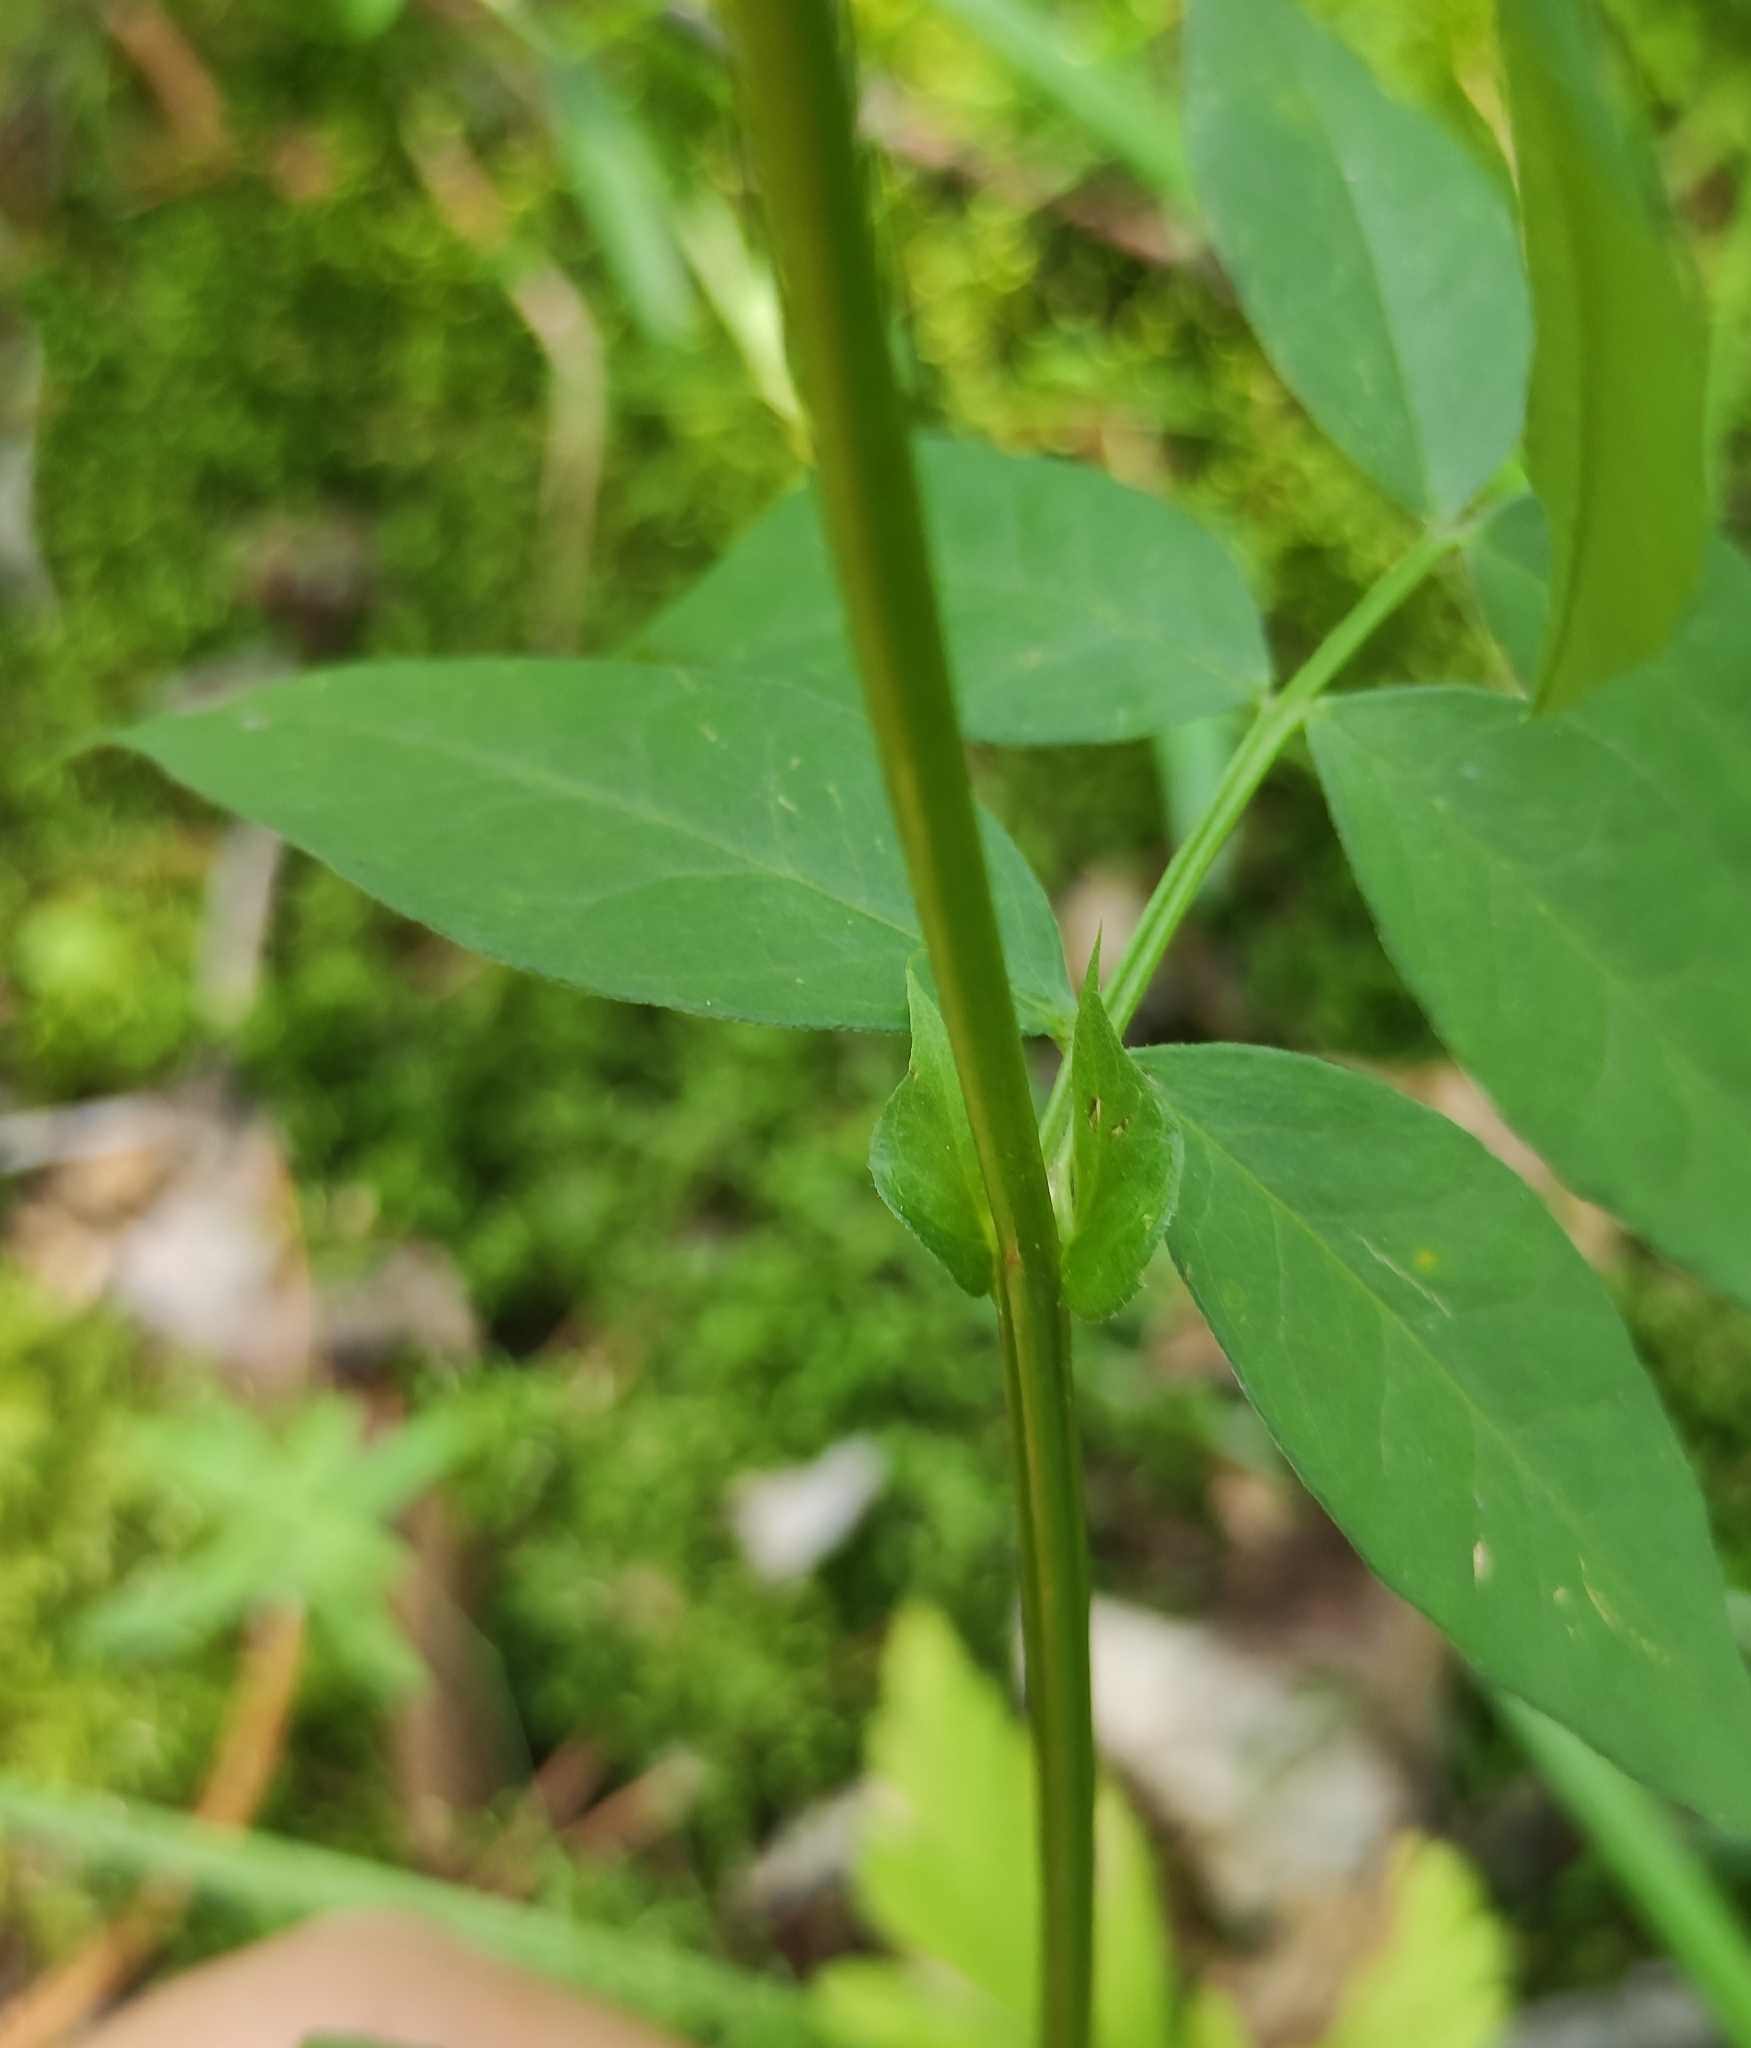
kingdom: Plantae
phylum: Tracheophyta
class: Magnoliopsida
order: Fabales
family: Fabaceae
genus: Vicia
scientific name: Vicia ramuliflora
